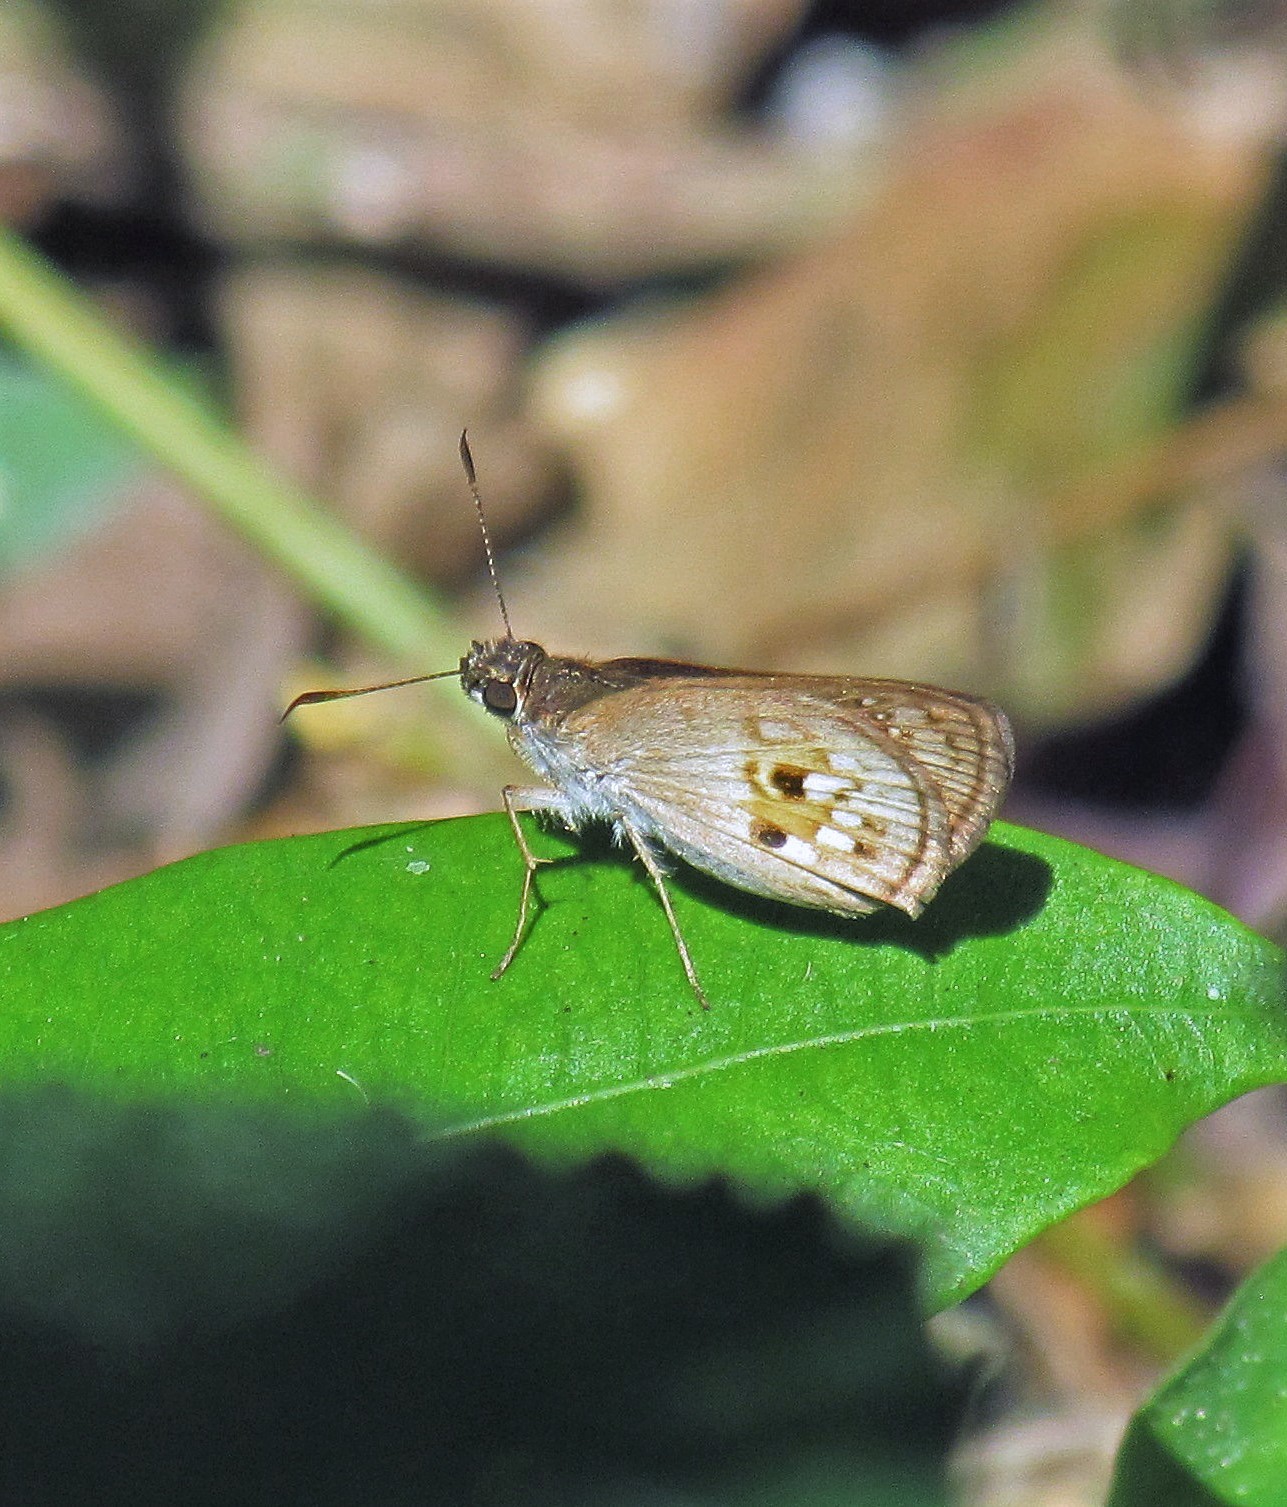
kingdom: Animalia
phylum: Arthropoda
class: Insecta
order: Lepidoptera
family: Hesperiidae
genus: Pheraeus
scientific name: Pheraeus odilia
